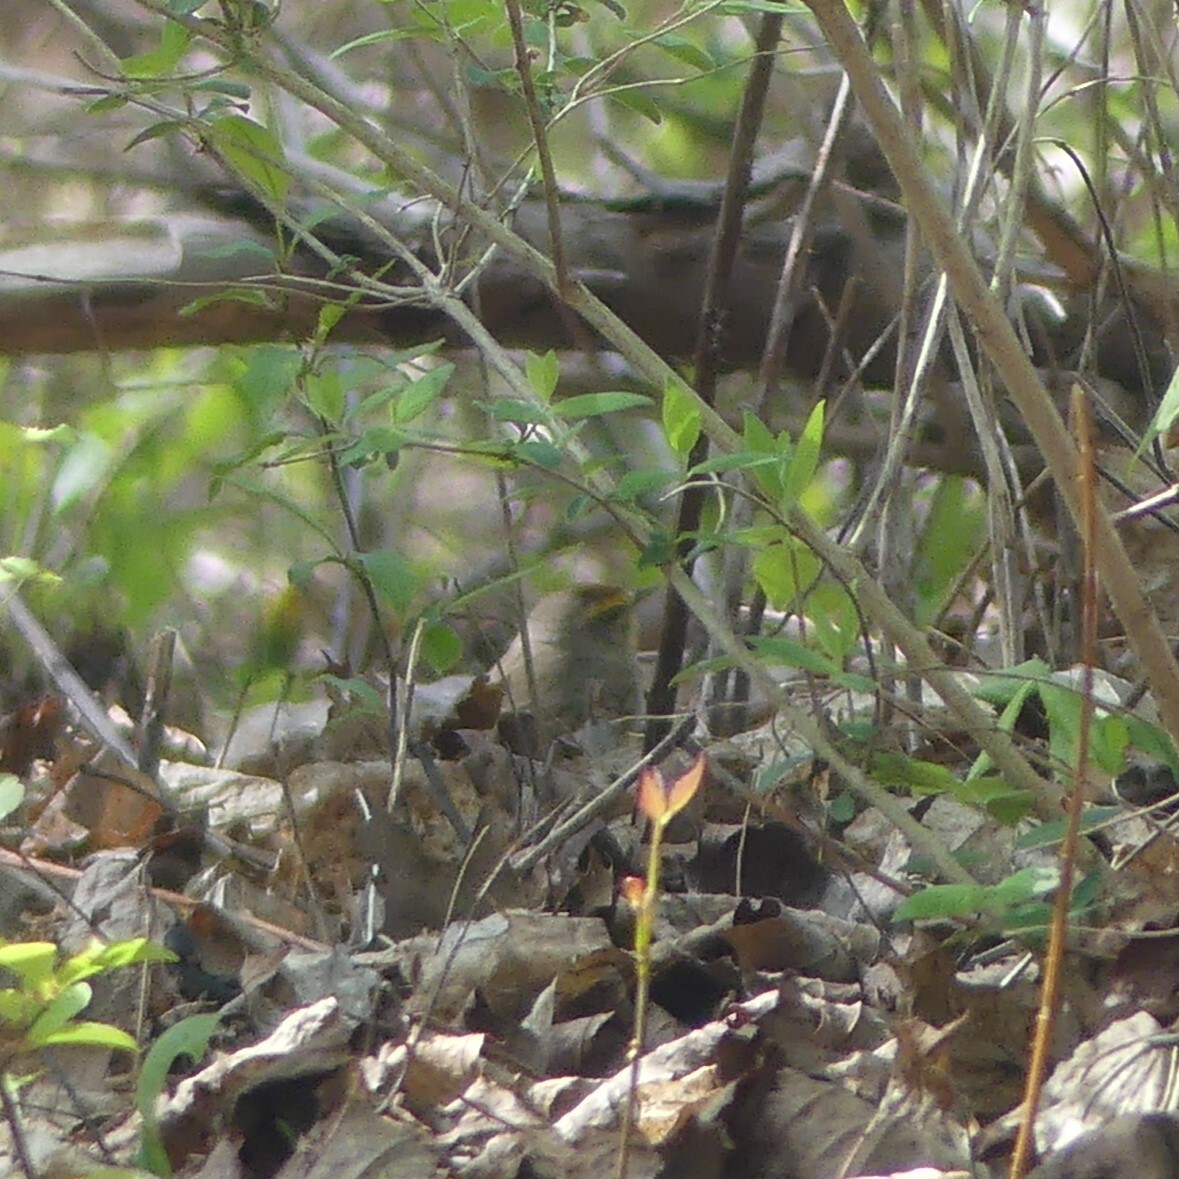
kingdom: Animalia
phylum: Chordata
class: Aves
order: Passeriformes
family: Parulidae
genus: Setophaga
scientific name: Setophaga palmarum
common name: Palm warbler
